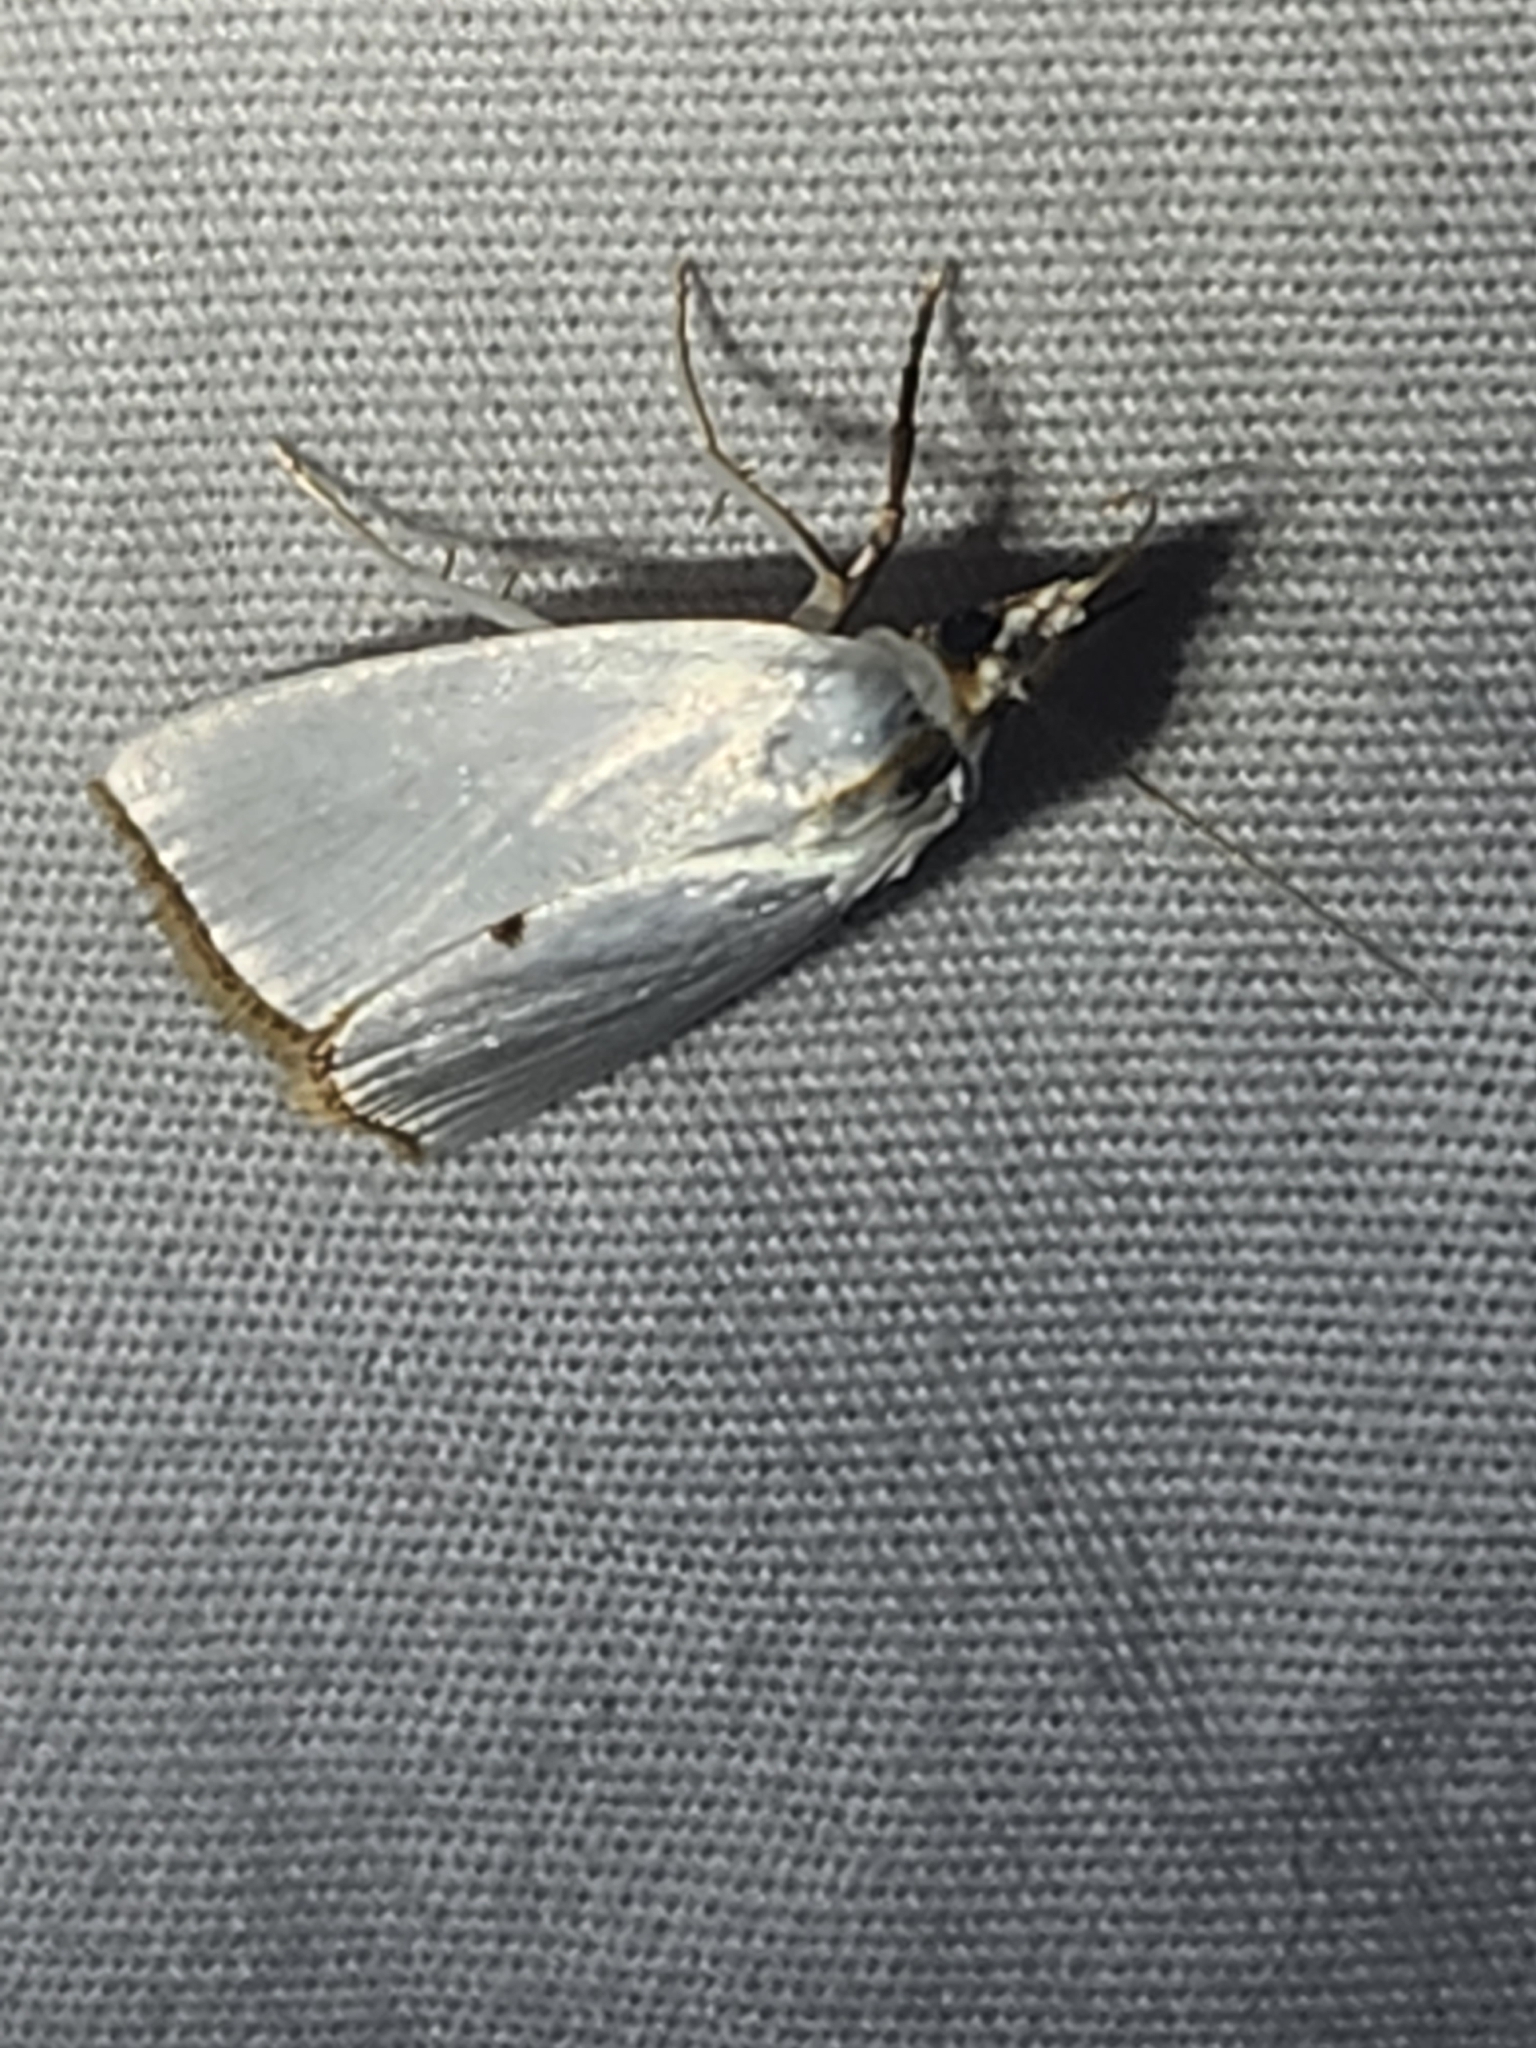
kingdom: Animalia
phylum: Arthropoda
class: Insecta
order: Lepidoptera
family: Crambidae
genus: Argyria
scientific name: Argyria nivalis
